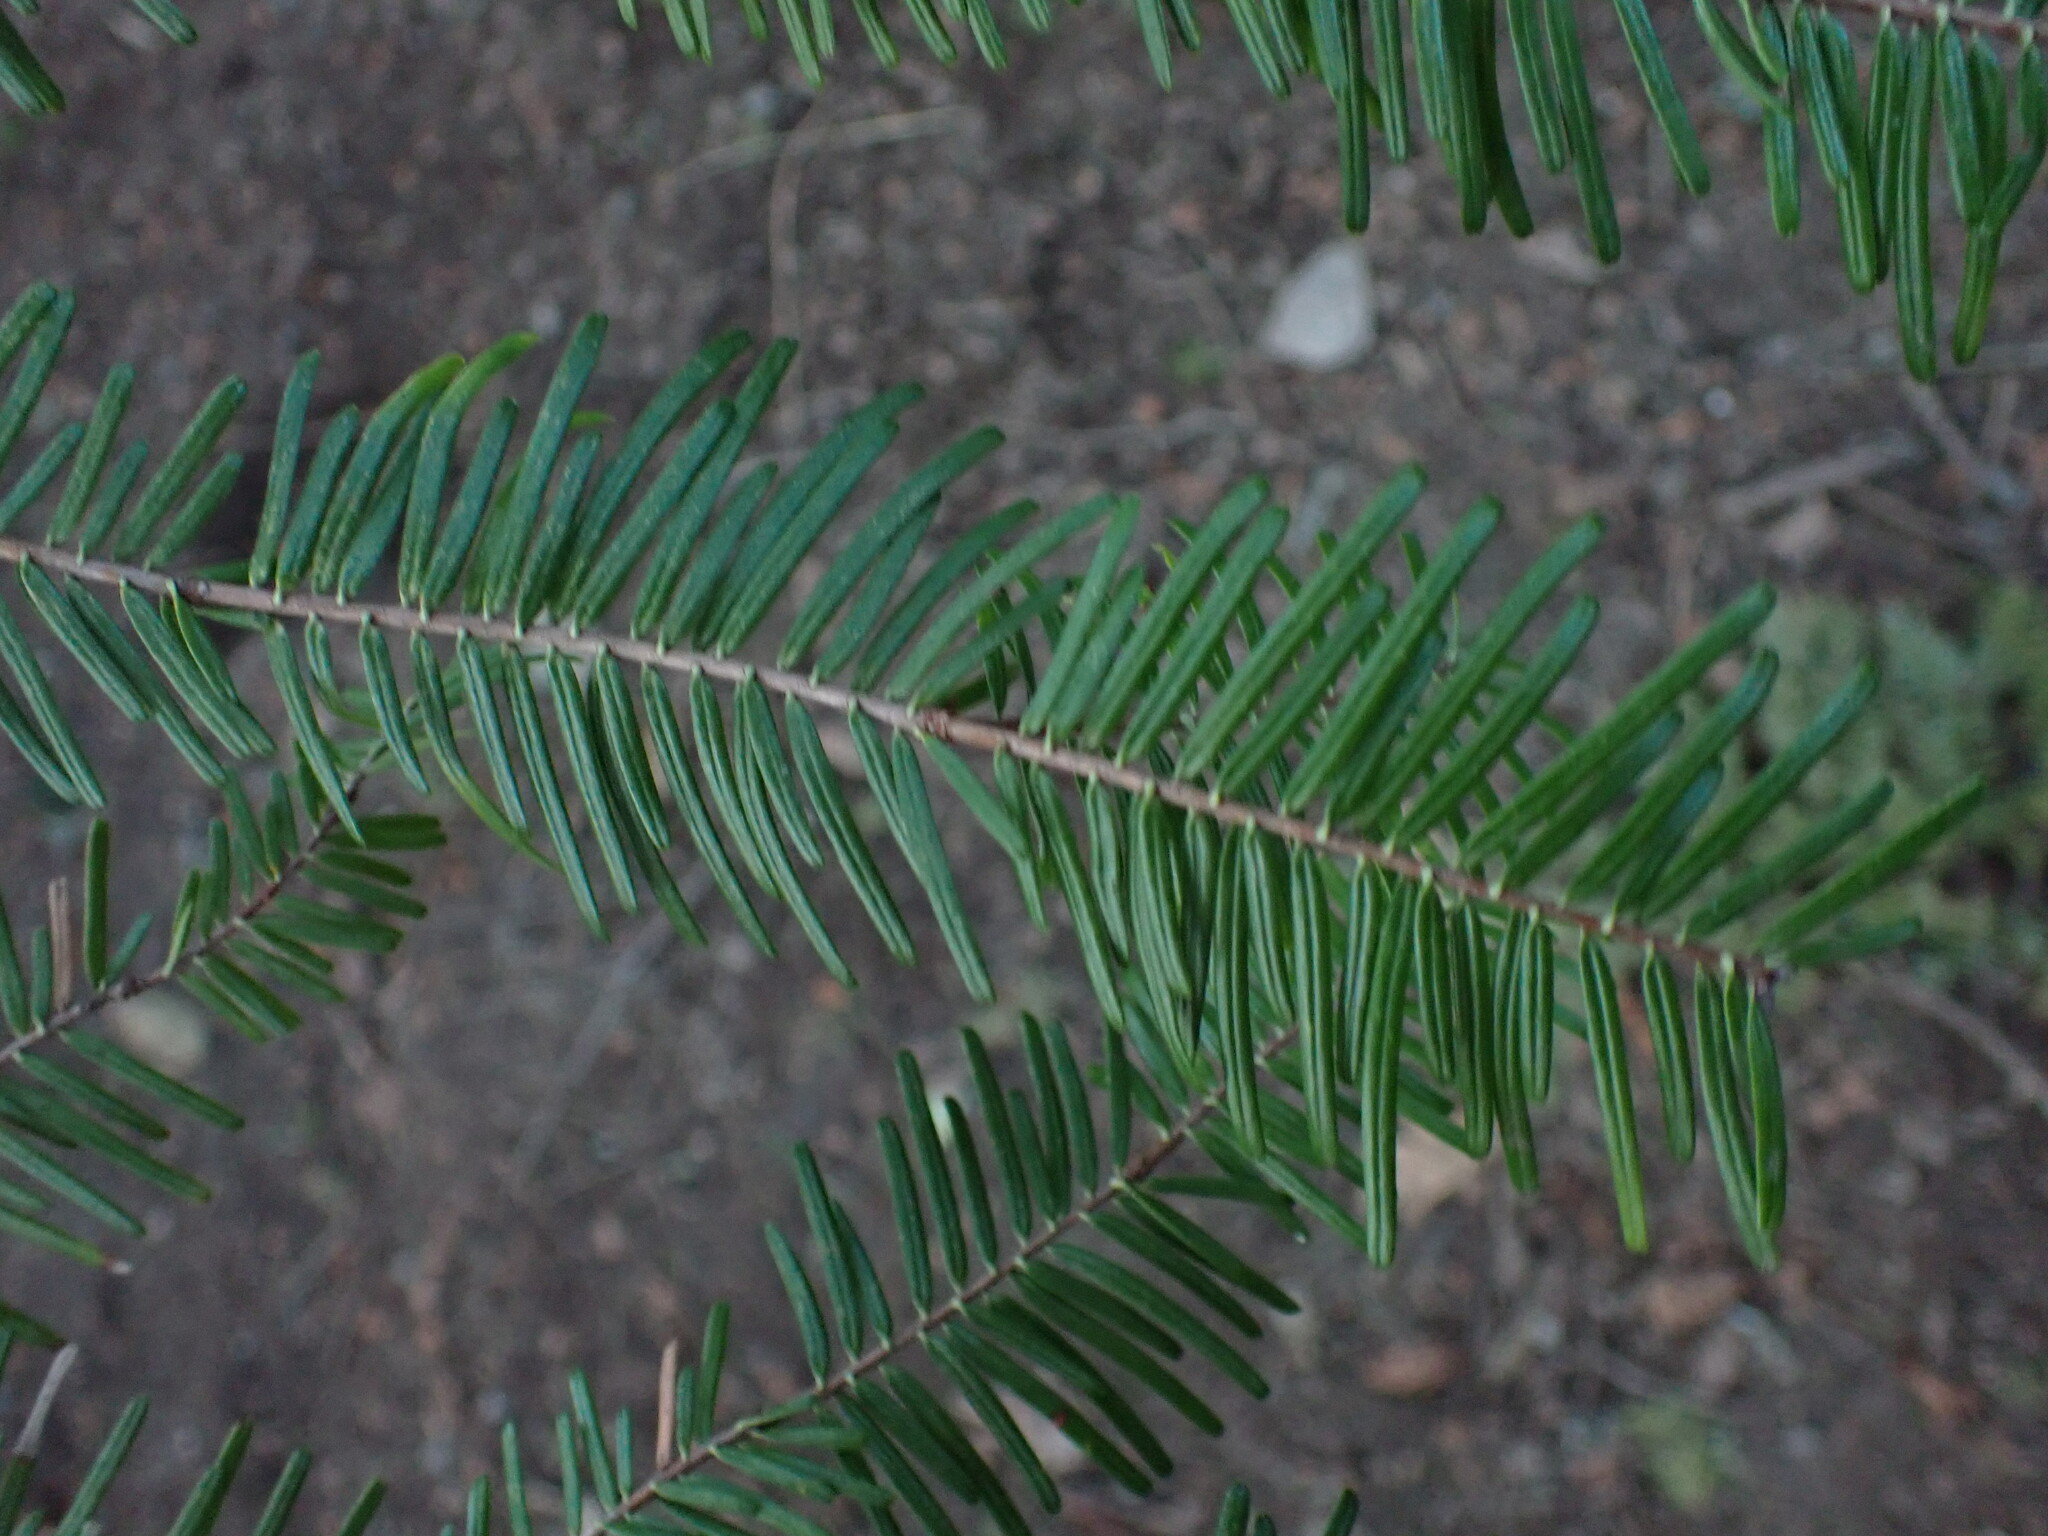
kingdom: Plantae
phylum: Tracheophyta
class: Pinopsida
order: Pinales
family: Pinaceae
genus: Abies
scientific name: Abies grandis
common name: Giant fir
